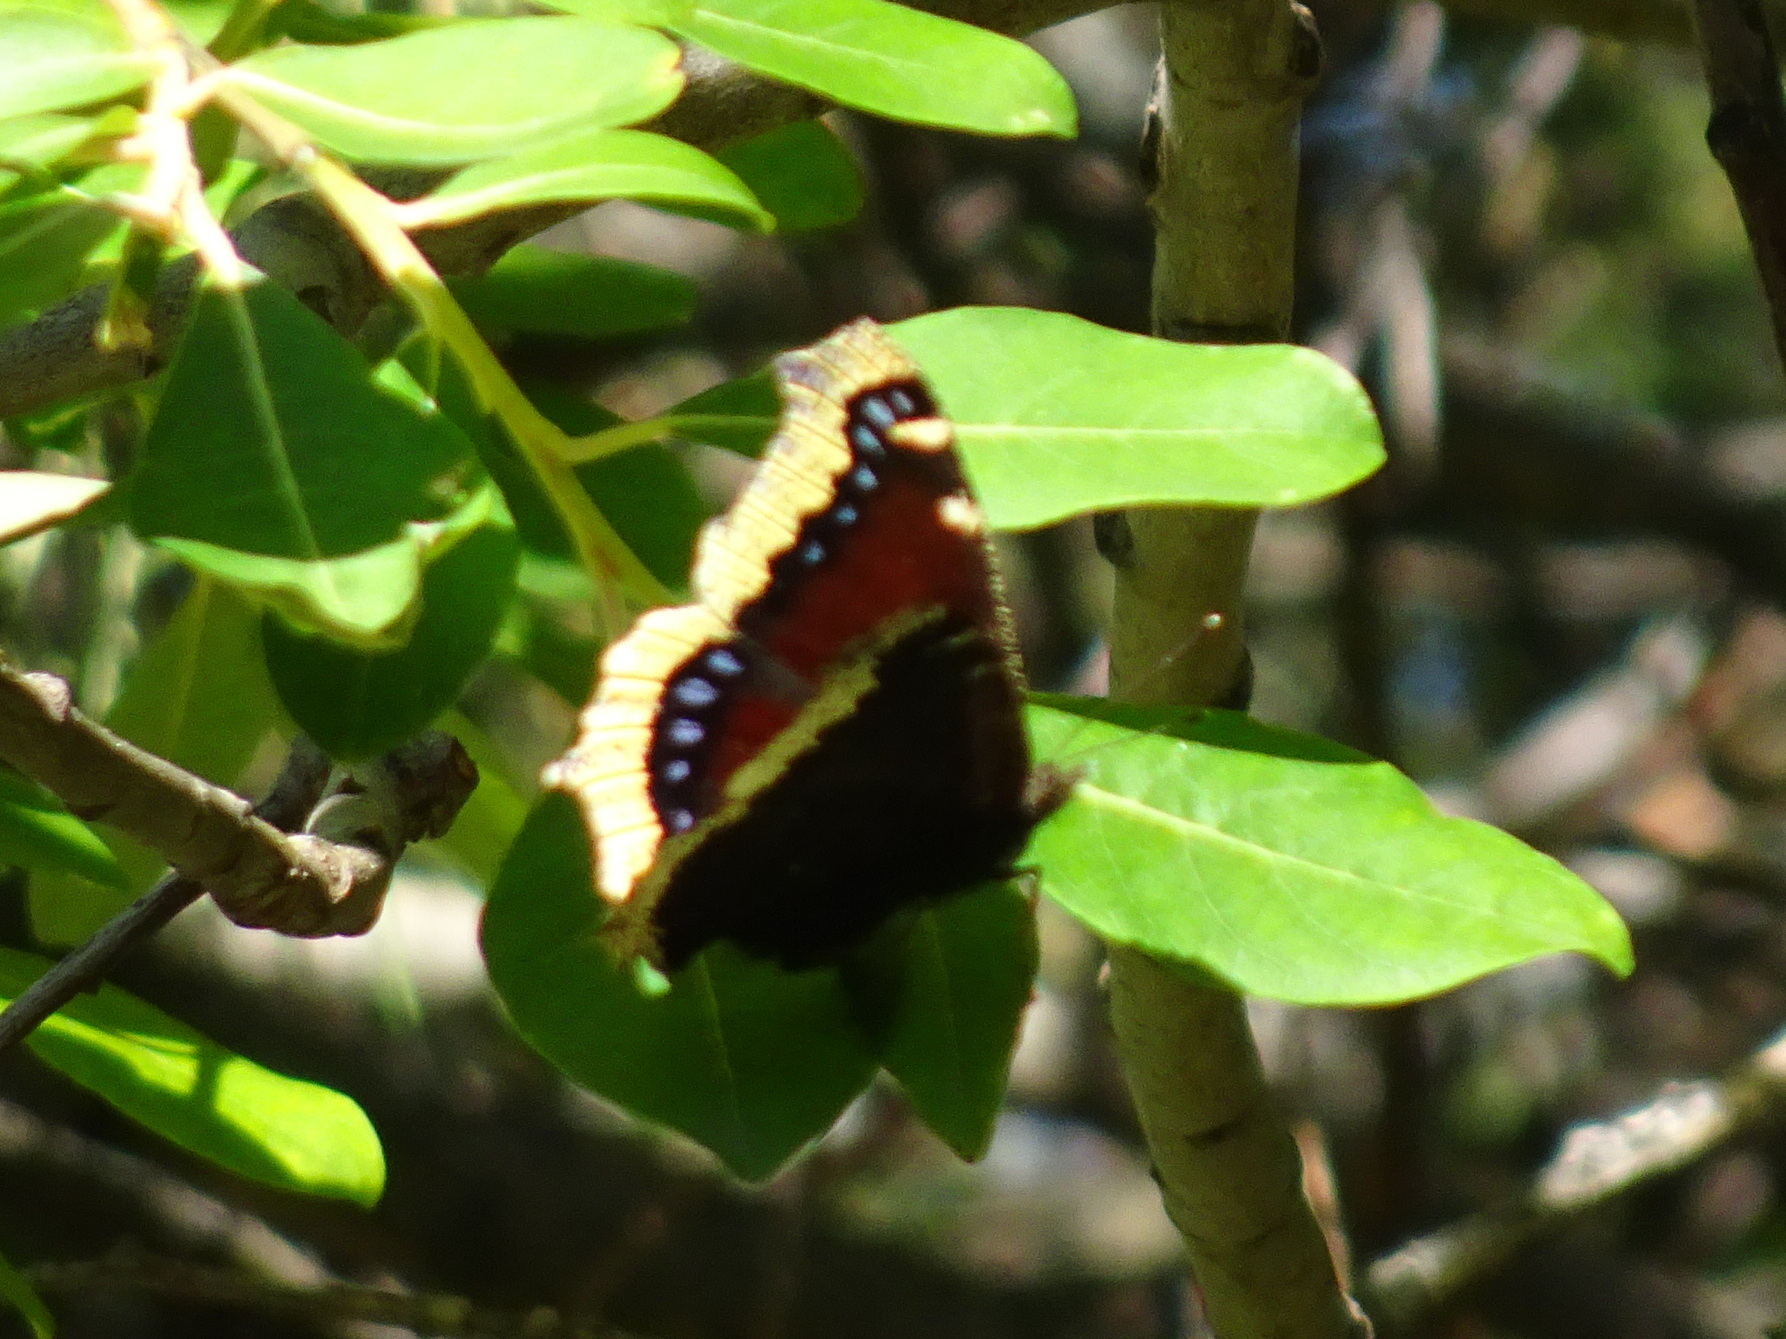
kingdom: Animalia
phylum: Arthropoda
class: Insecta
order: Lepidoptera
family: Nymphalidae
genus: Nymphalis
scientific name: Nymphalis antiopa
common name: Camberwell beauty
